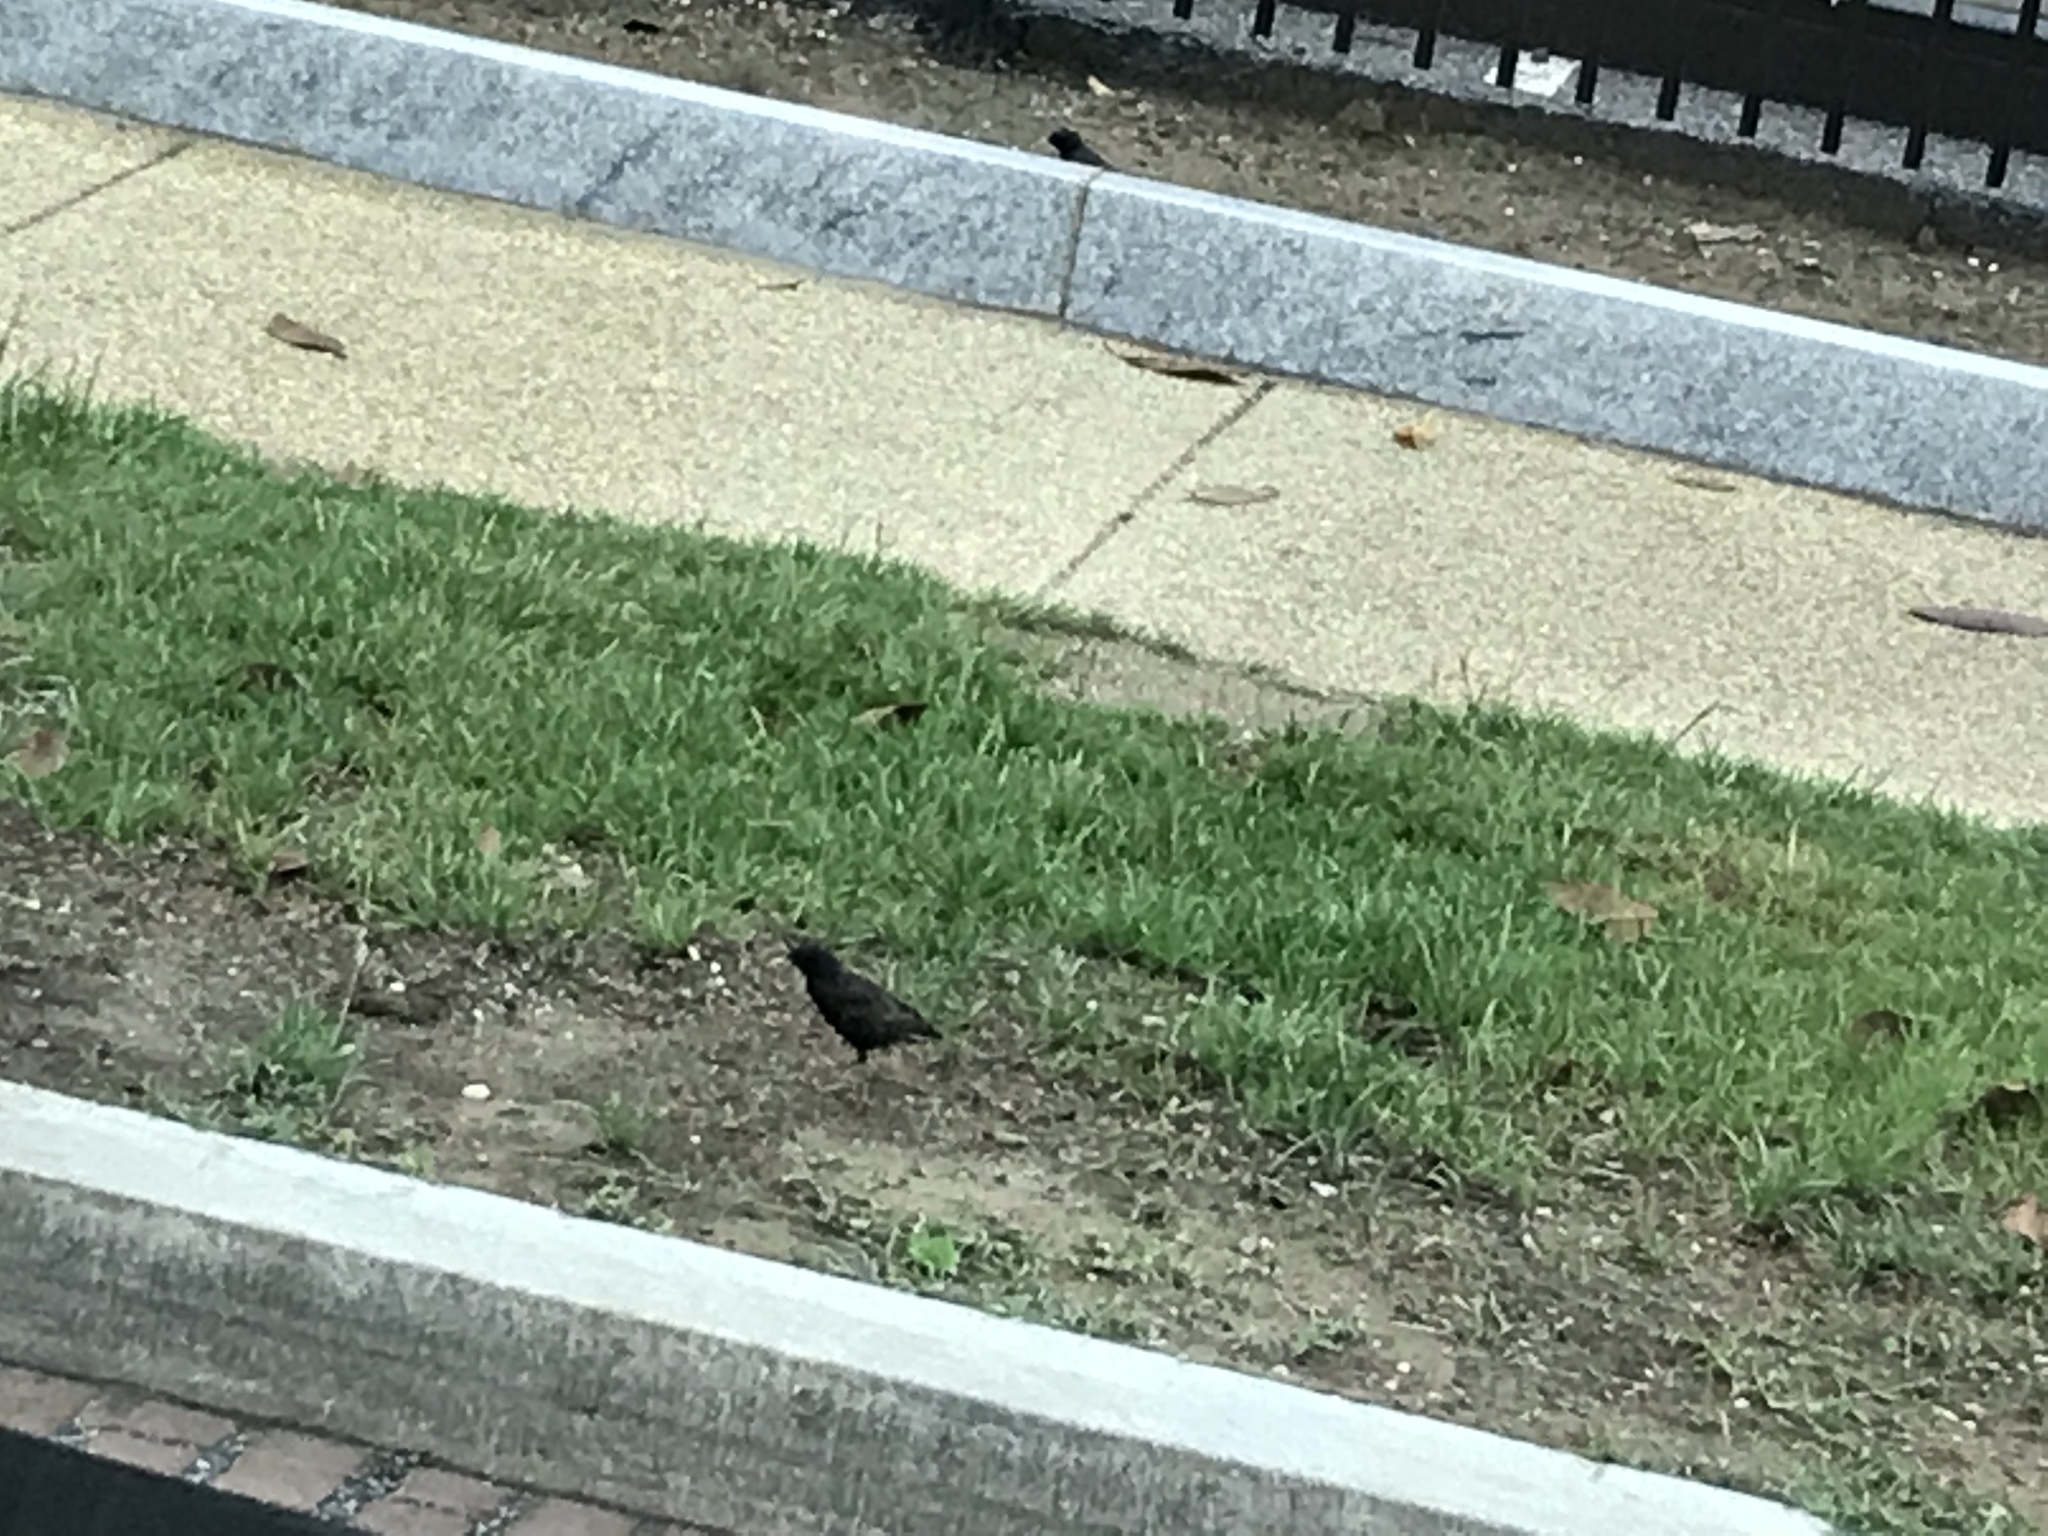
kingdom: Animalia
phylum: Chordata
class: Aves
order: Passeriformes
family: Sturnidae
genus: Sturnus
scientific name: Sturnus vulgaris
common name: Common starling
